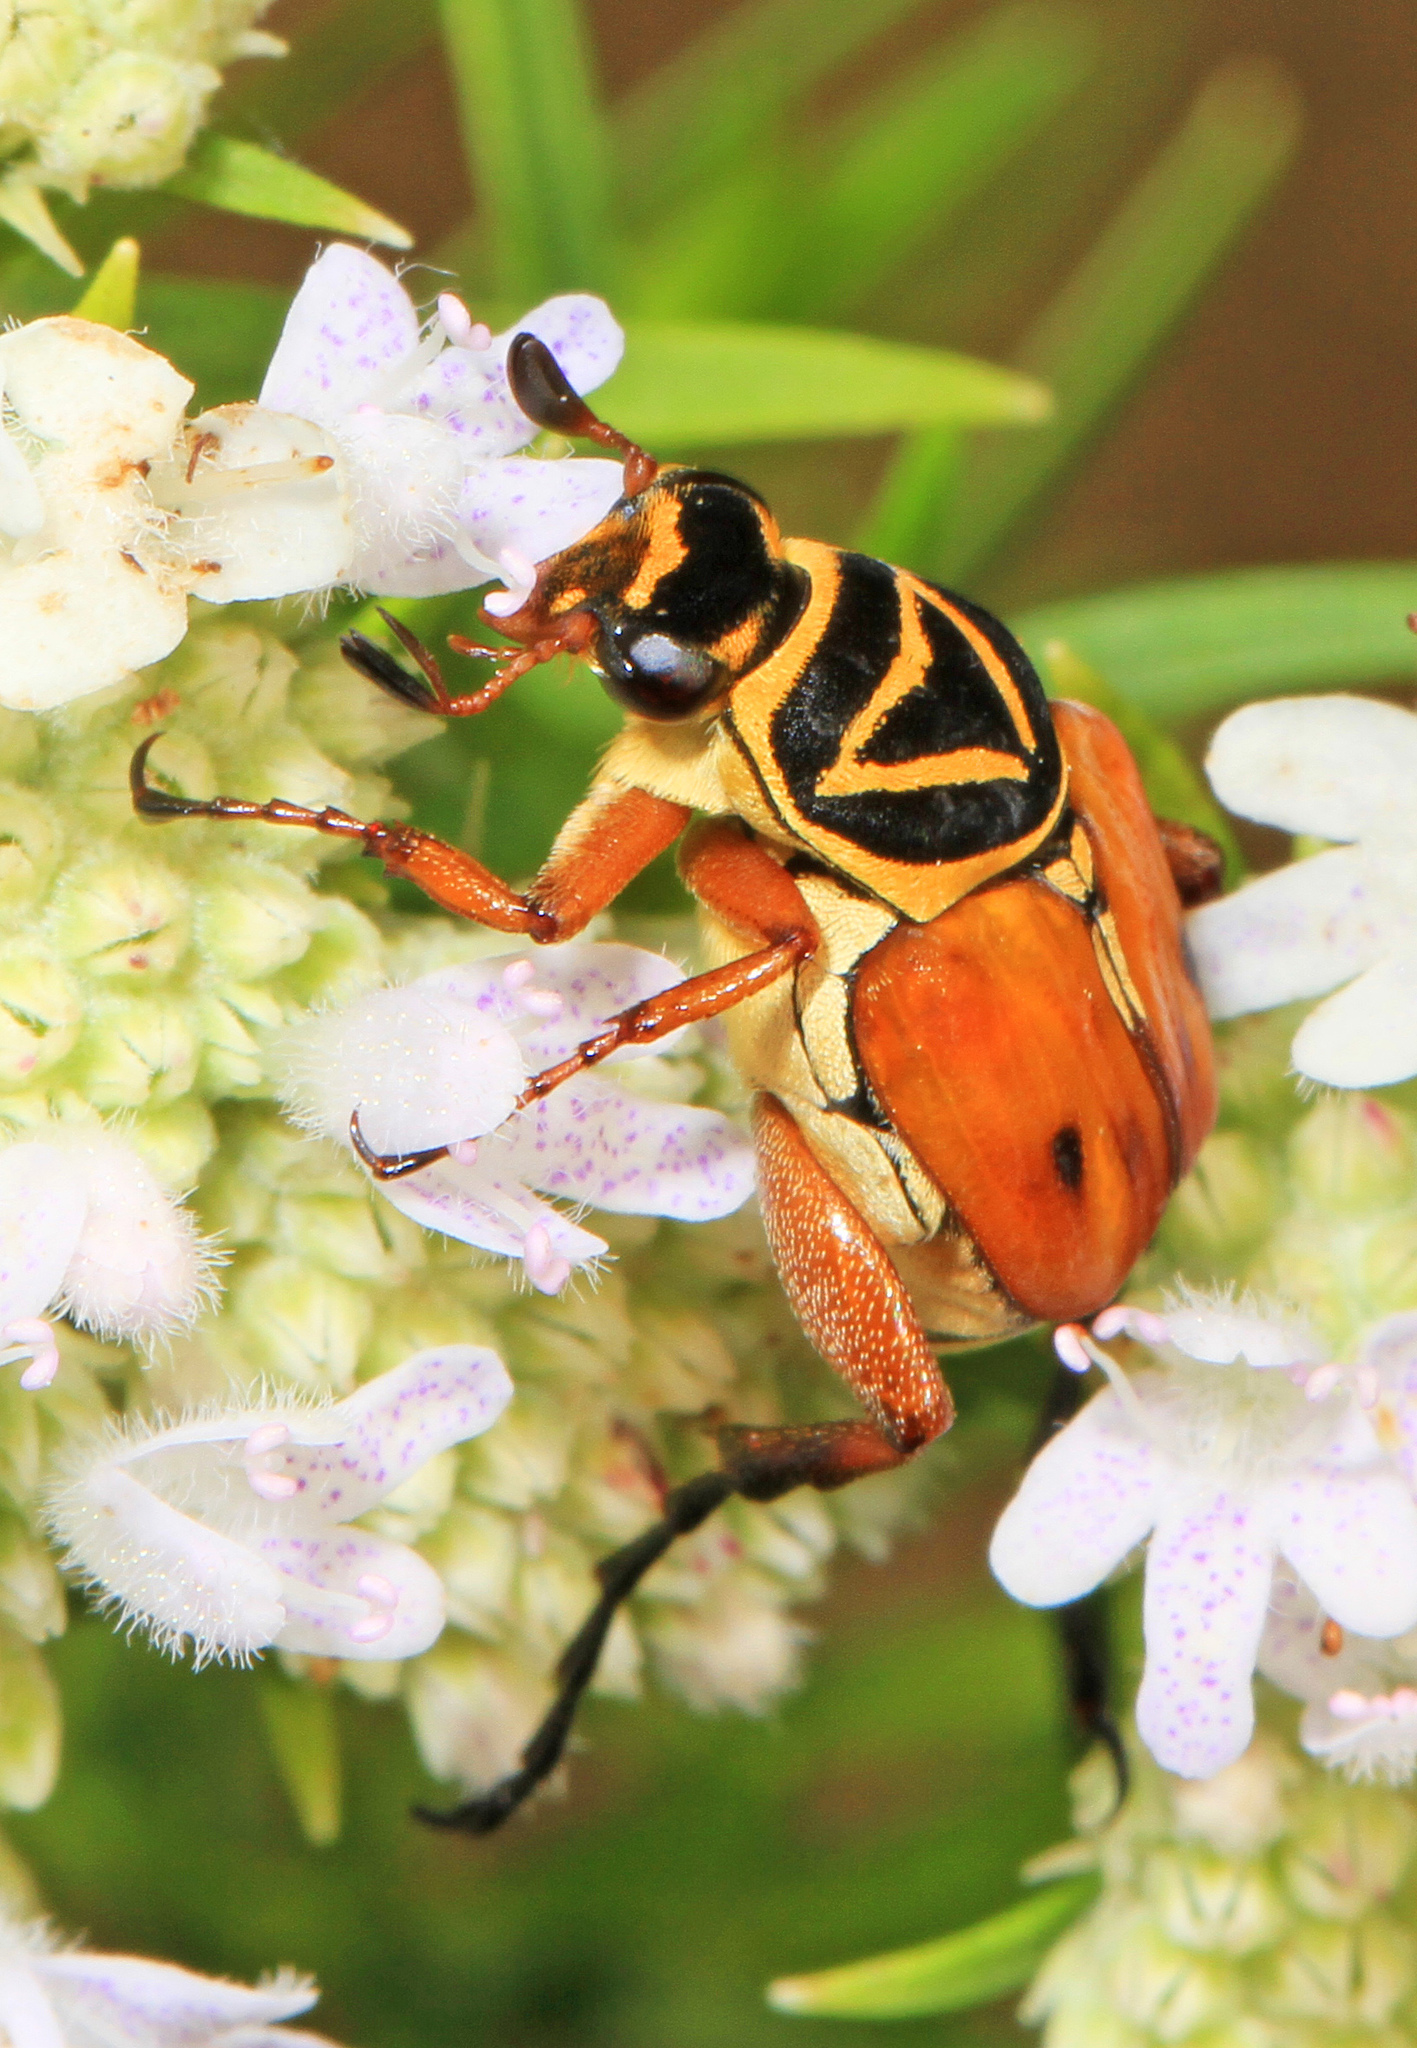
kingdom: Animalia
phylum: Arthropoda
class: Insecta
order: Coleoptera
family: Scarabaeidae
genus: Trigonopeltastes
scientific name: Trigonopeltastes delta
